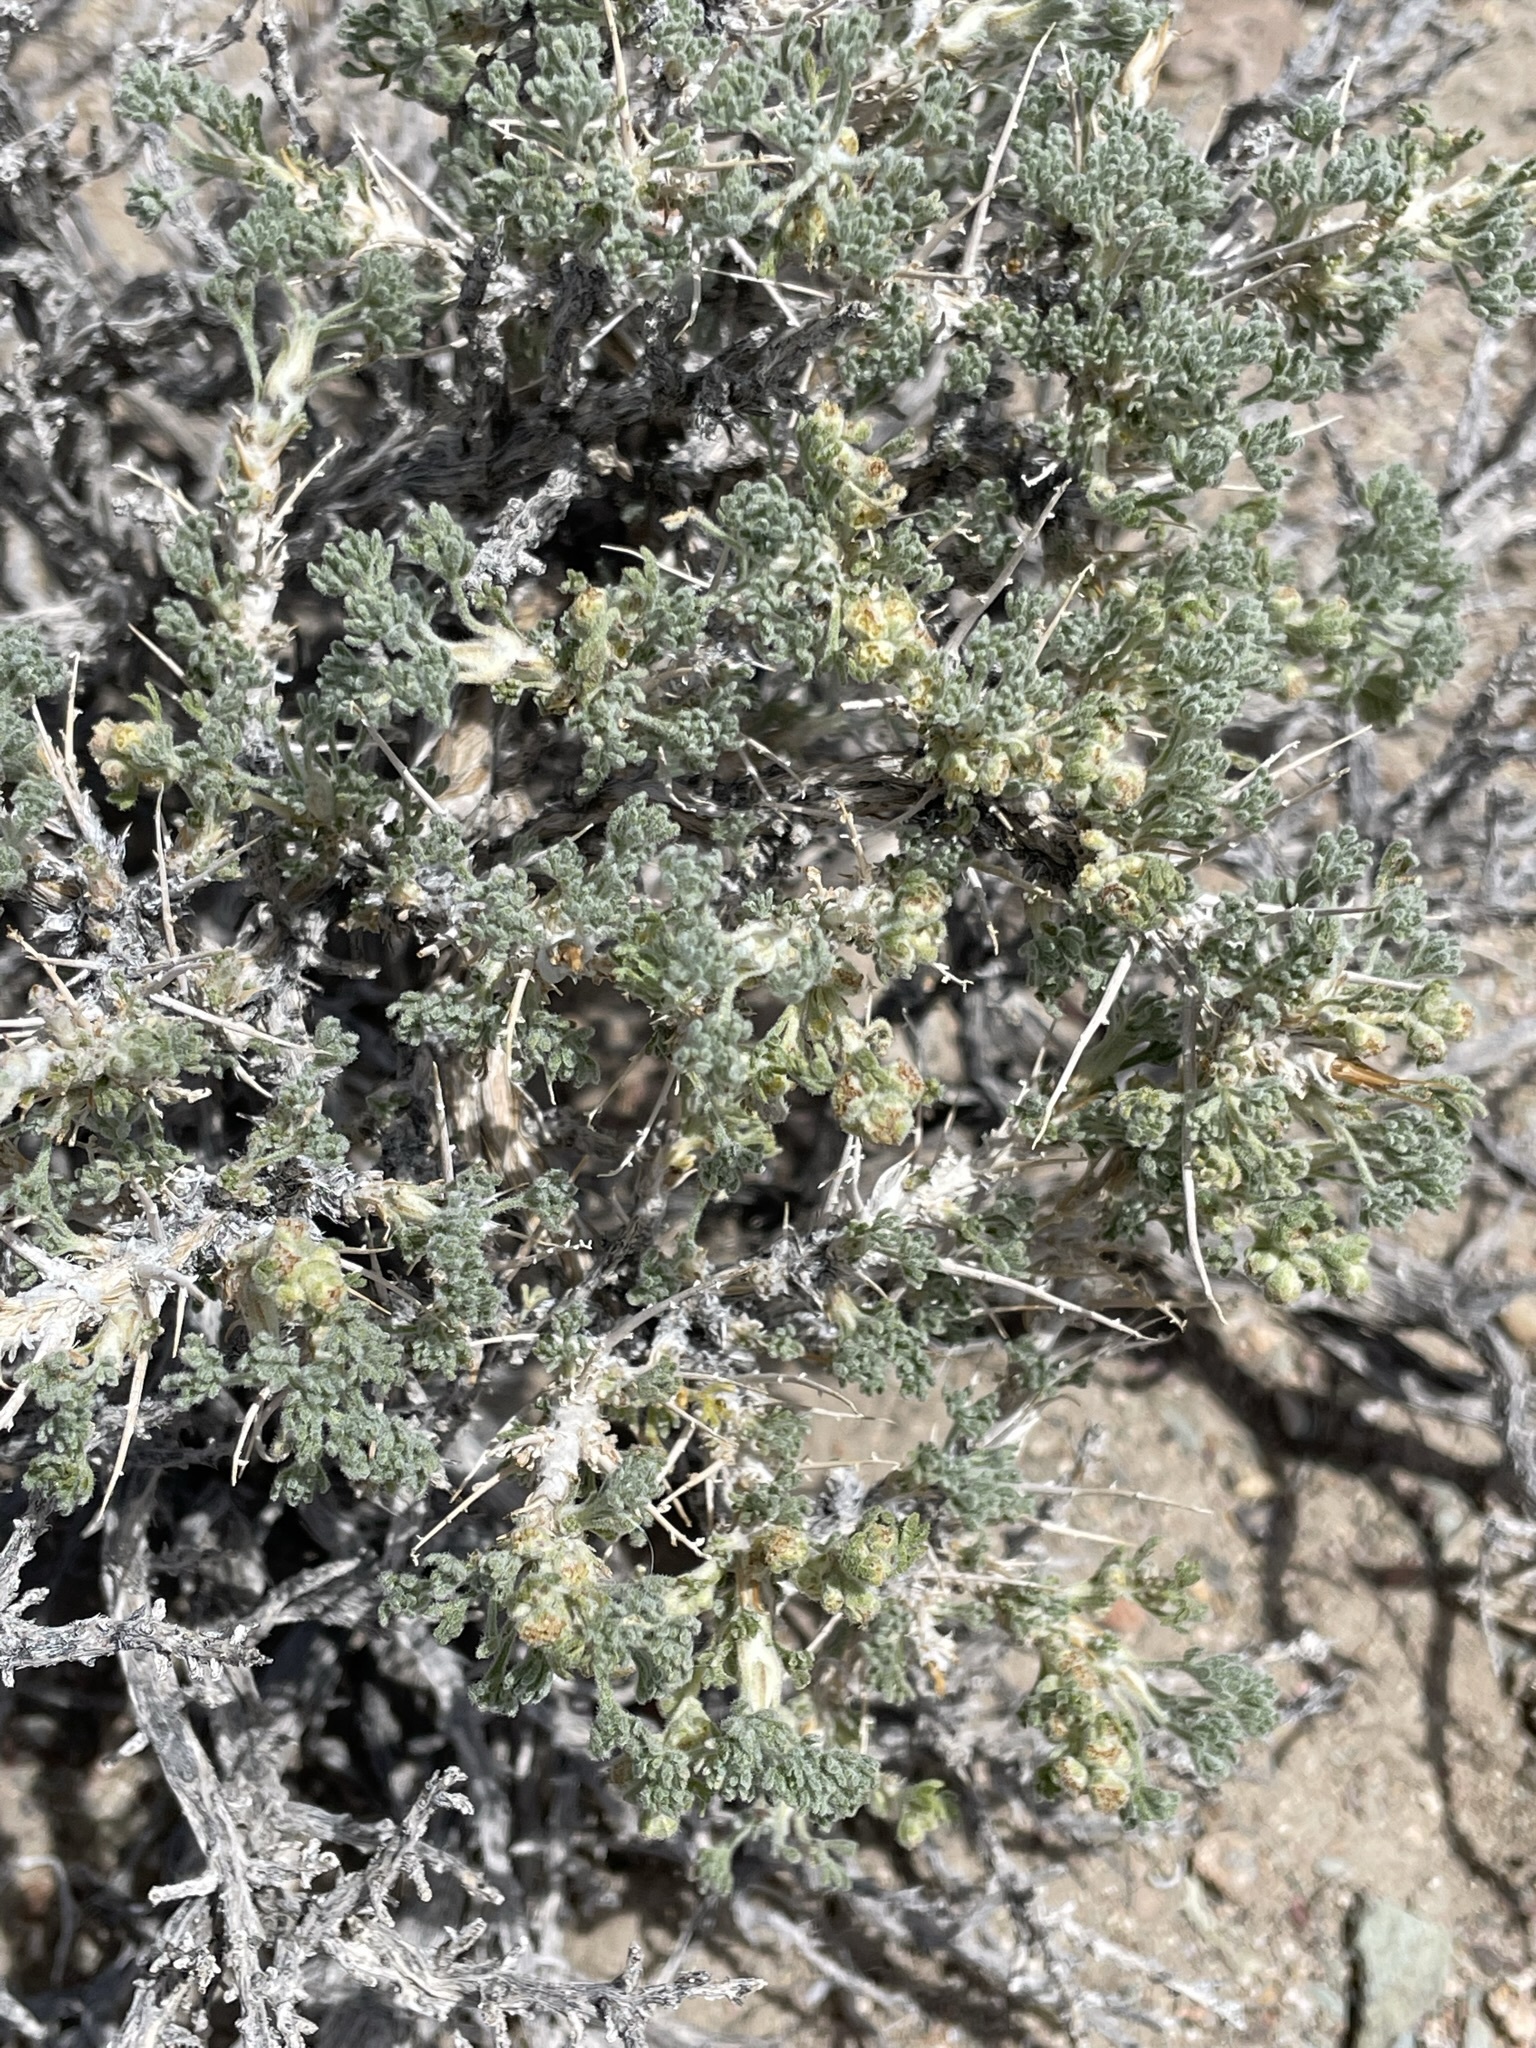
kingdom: Plantae
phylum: Tracheophyta
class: Magnoliopsida
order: Asterales
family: Asteraceae
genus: Artemisia
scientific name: Artemisia spinescens
